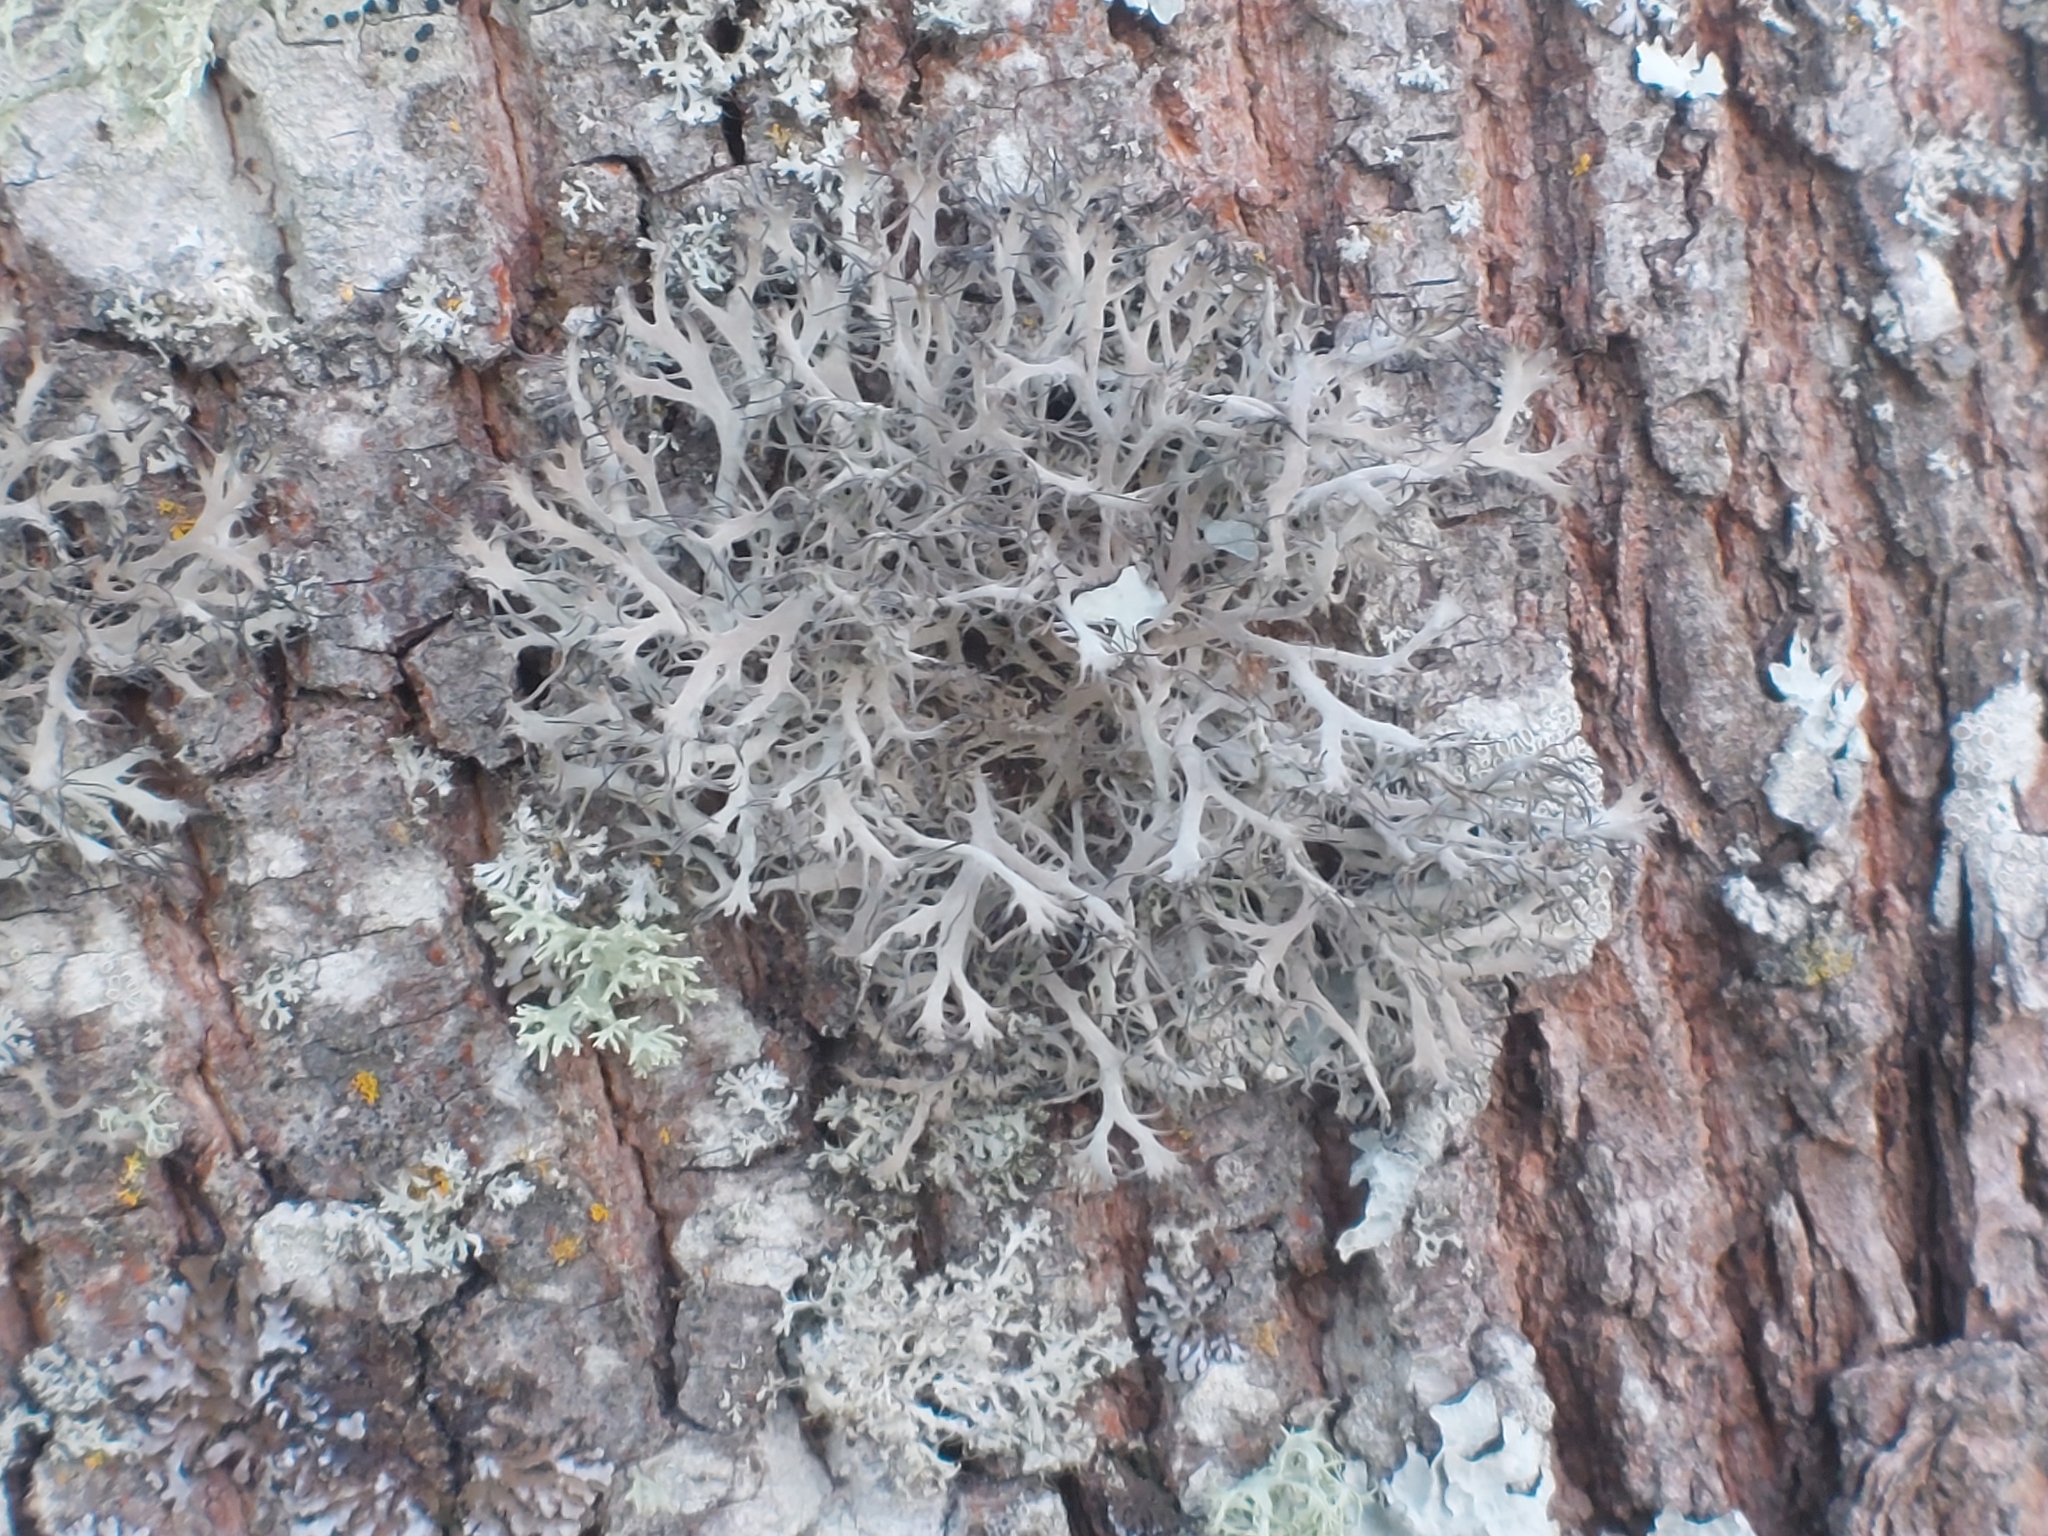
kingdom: Fungi
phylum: Ascomycota
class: Lecanoromycetes
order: Caliciales
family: Physciaceae
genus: Anaptychia
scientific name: Anaptychia ciliaris
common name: Great ciliated lichen
